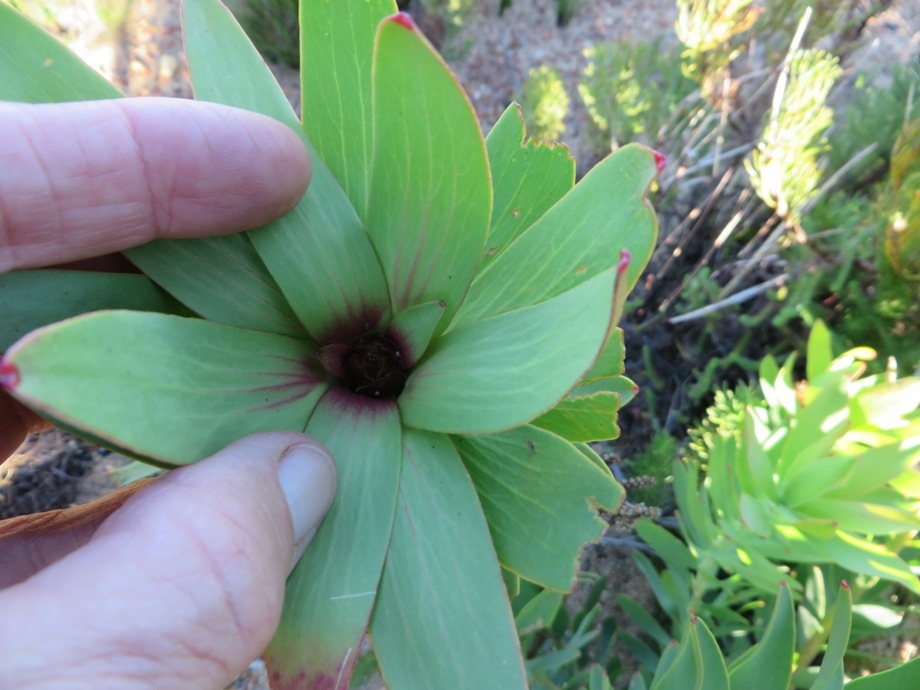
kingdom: Plantae
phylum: Tracheophyta
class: Magnoliopsida
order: Proteales
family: Proteaceae
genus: Leucadendron
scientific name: Leucadendron sessile
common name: Western sunbush
